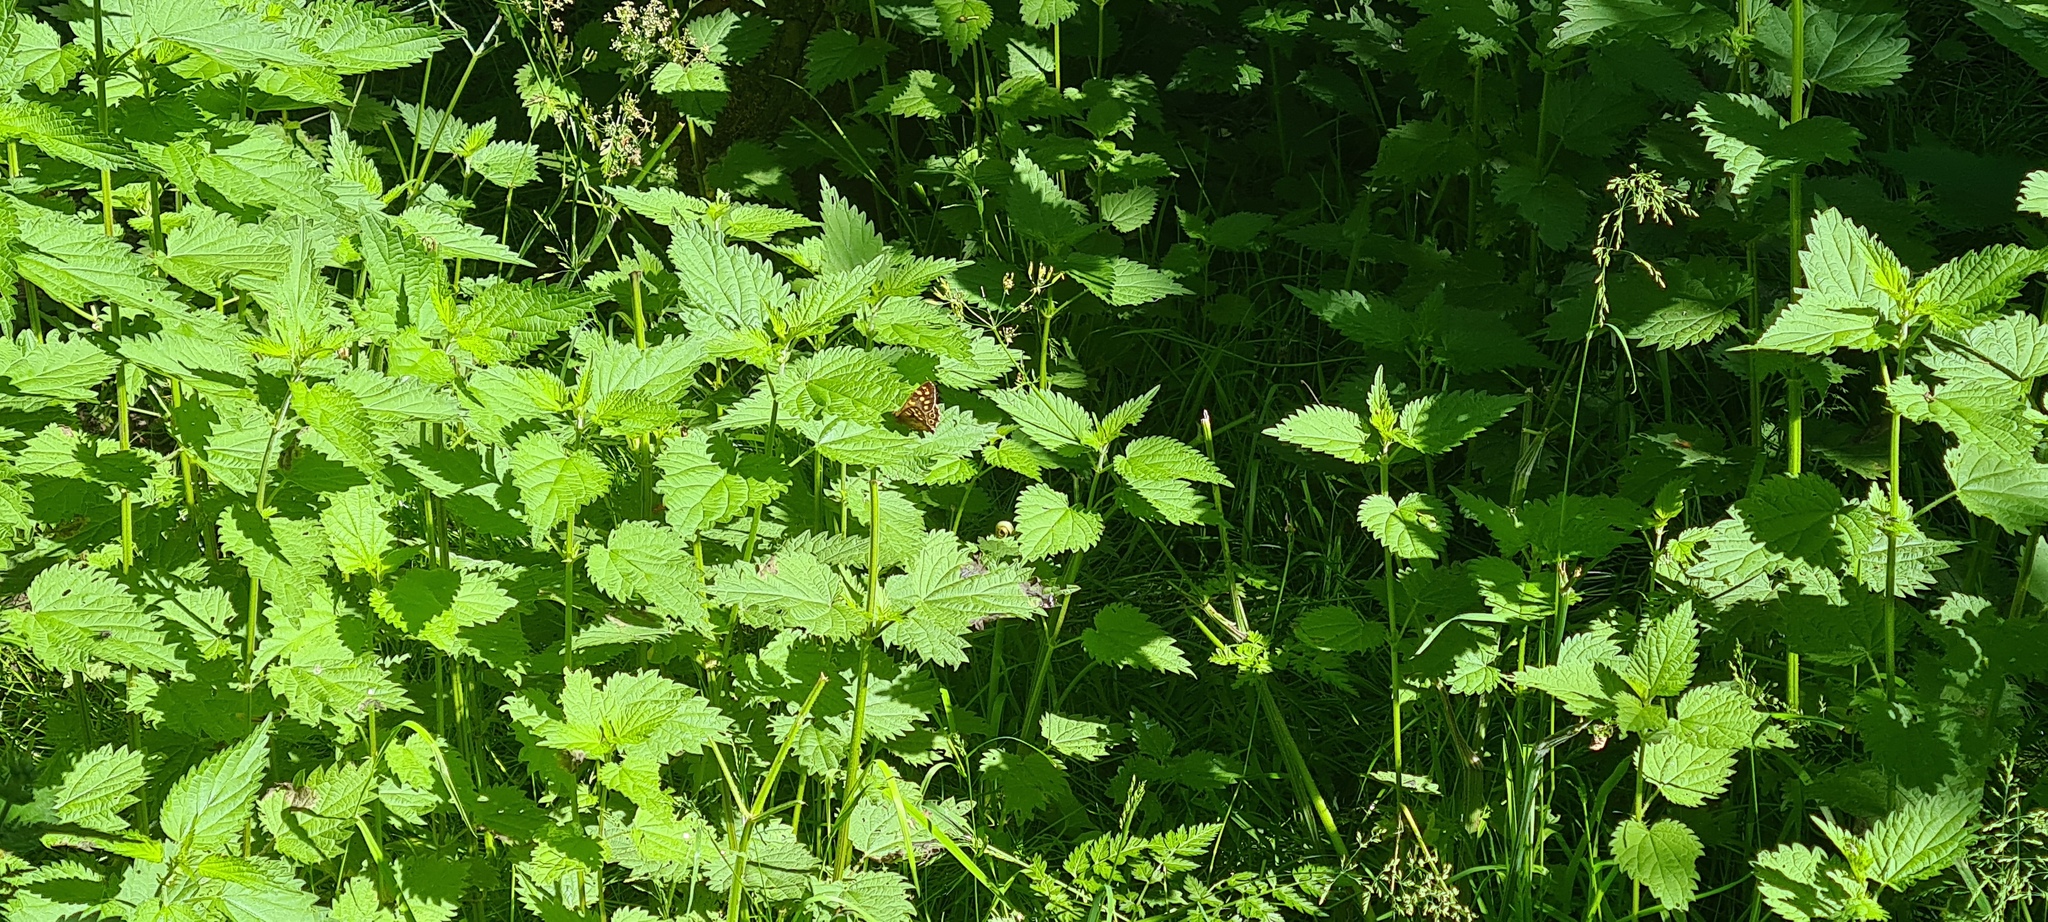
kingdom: Animalia
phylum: Arthropoda
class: Insecta
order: Lepidoptera
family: Nymphalidae
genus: Pararge
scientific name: Pararge aegeria
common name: Speckled wood
